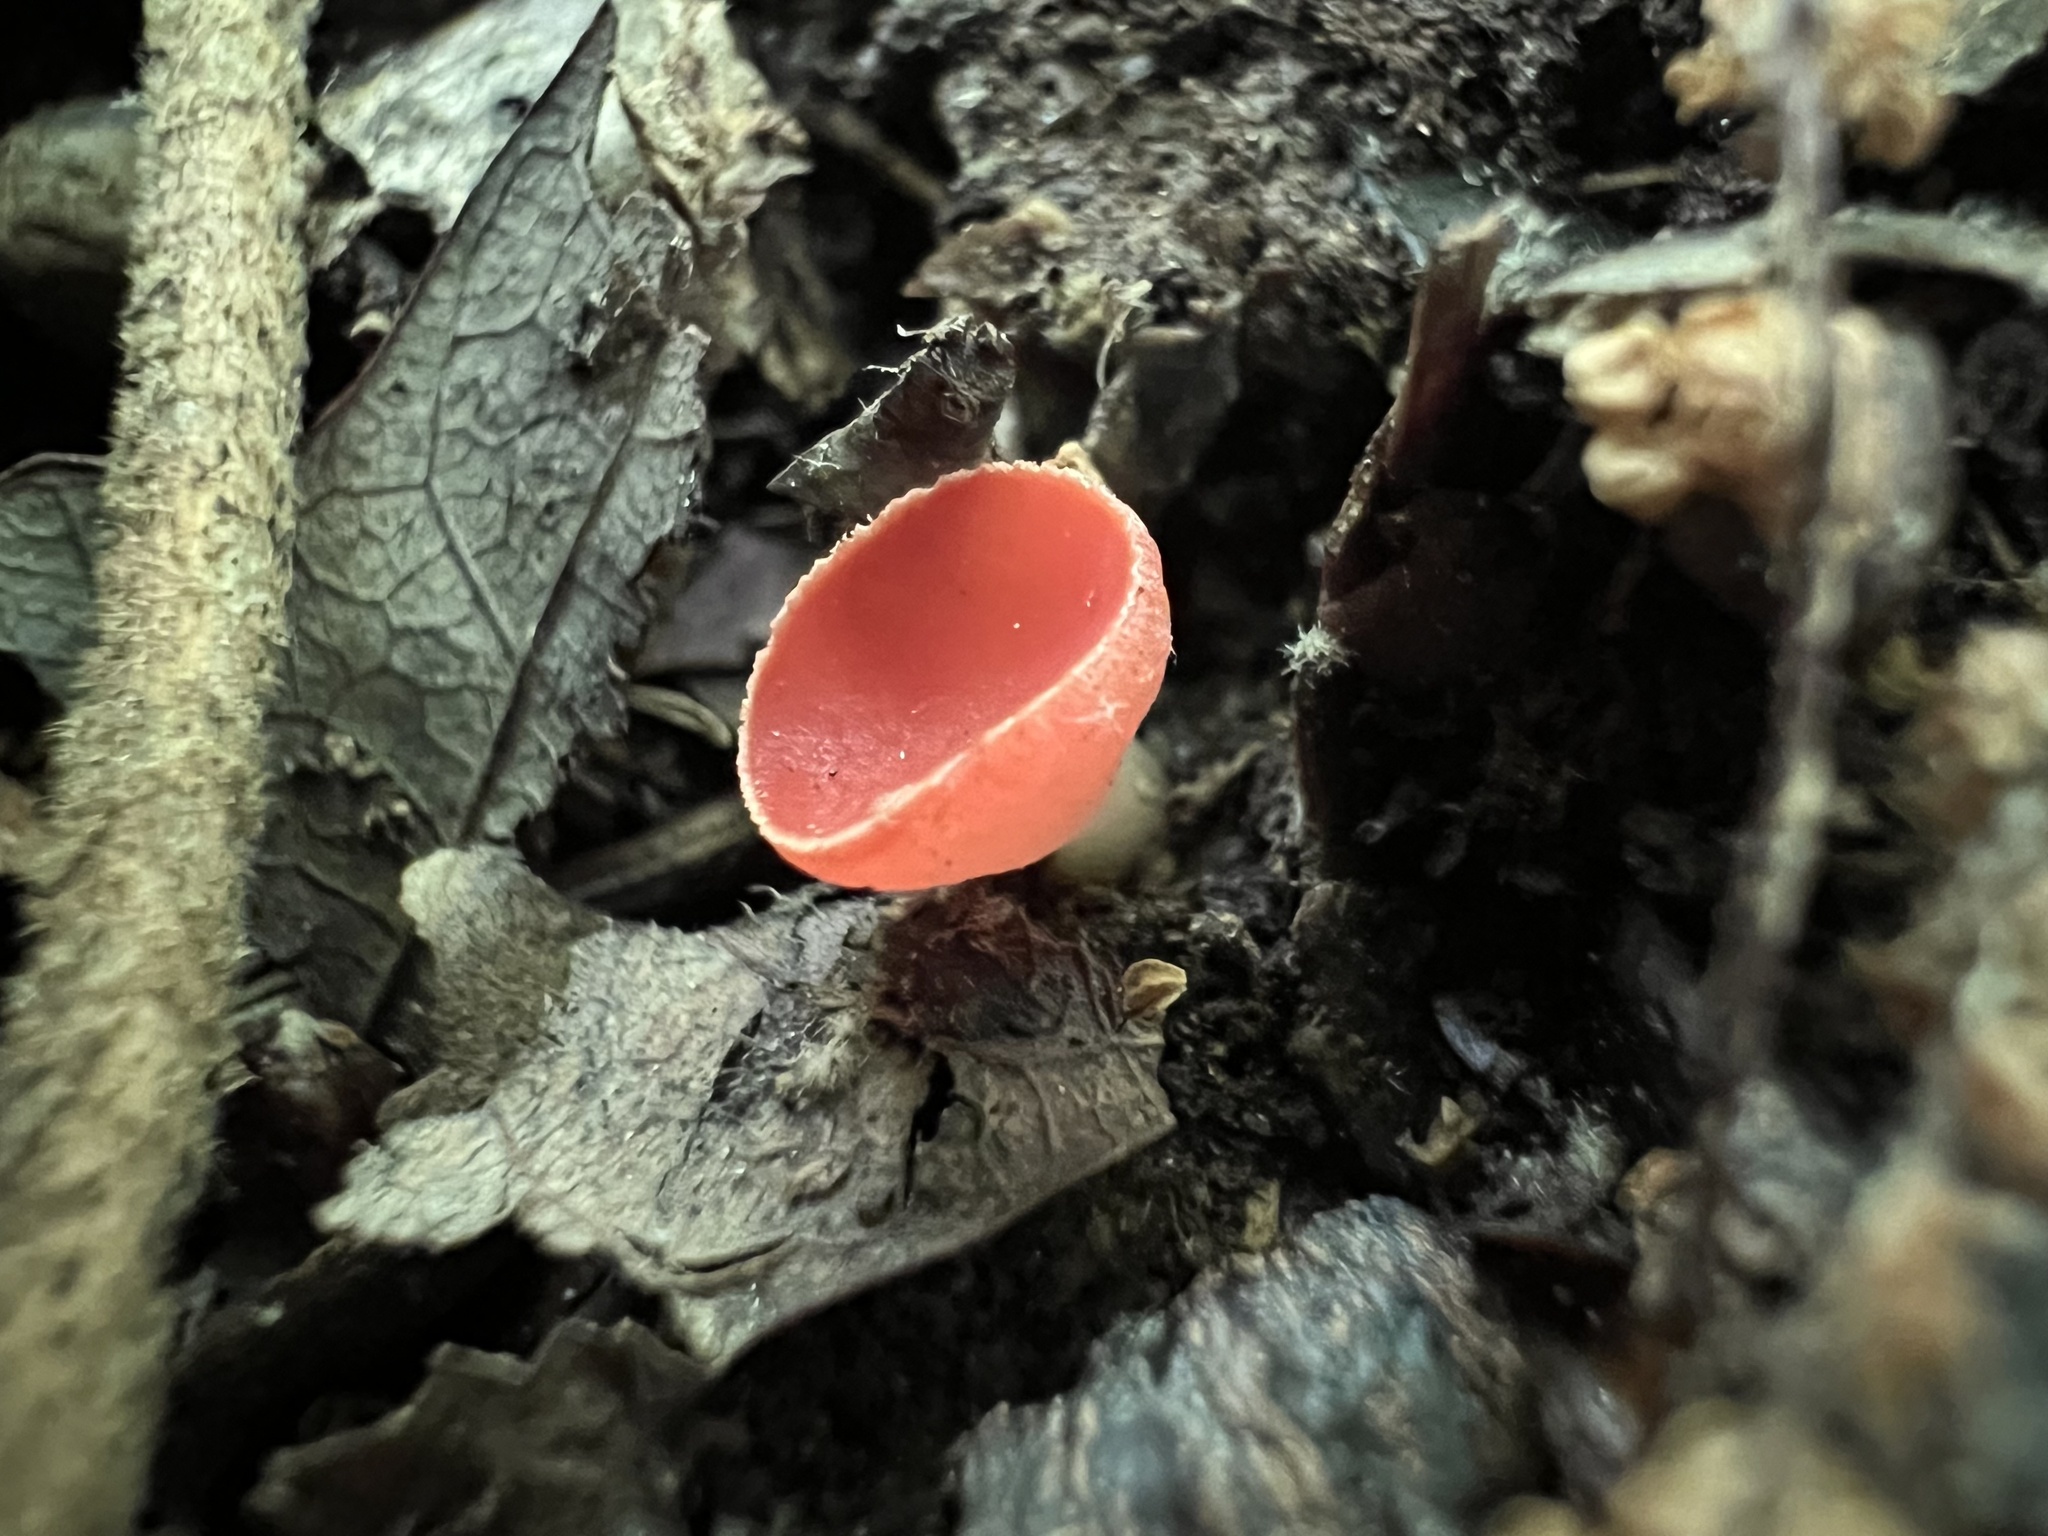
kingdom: Fungi
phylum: Ascomycota
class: Pezizomycetes
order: Pezizales
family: Sarcoscyphaceae
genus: Sarcoscypha
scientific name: Sarcoscypha occidentalis
